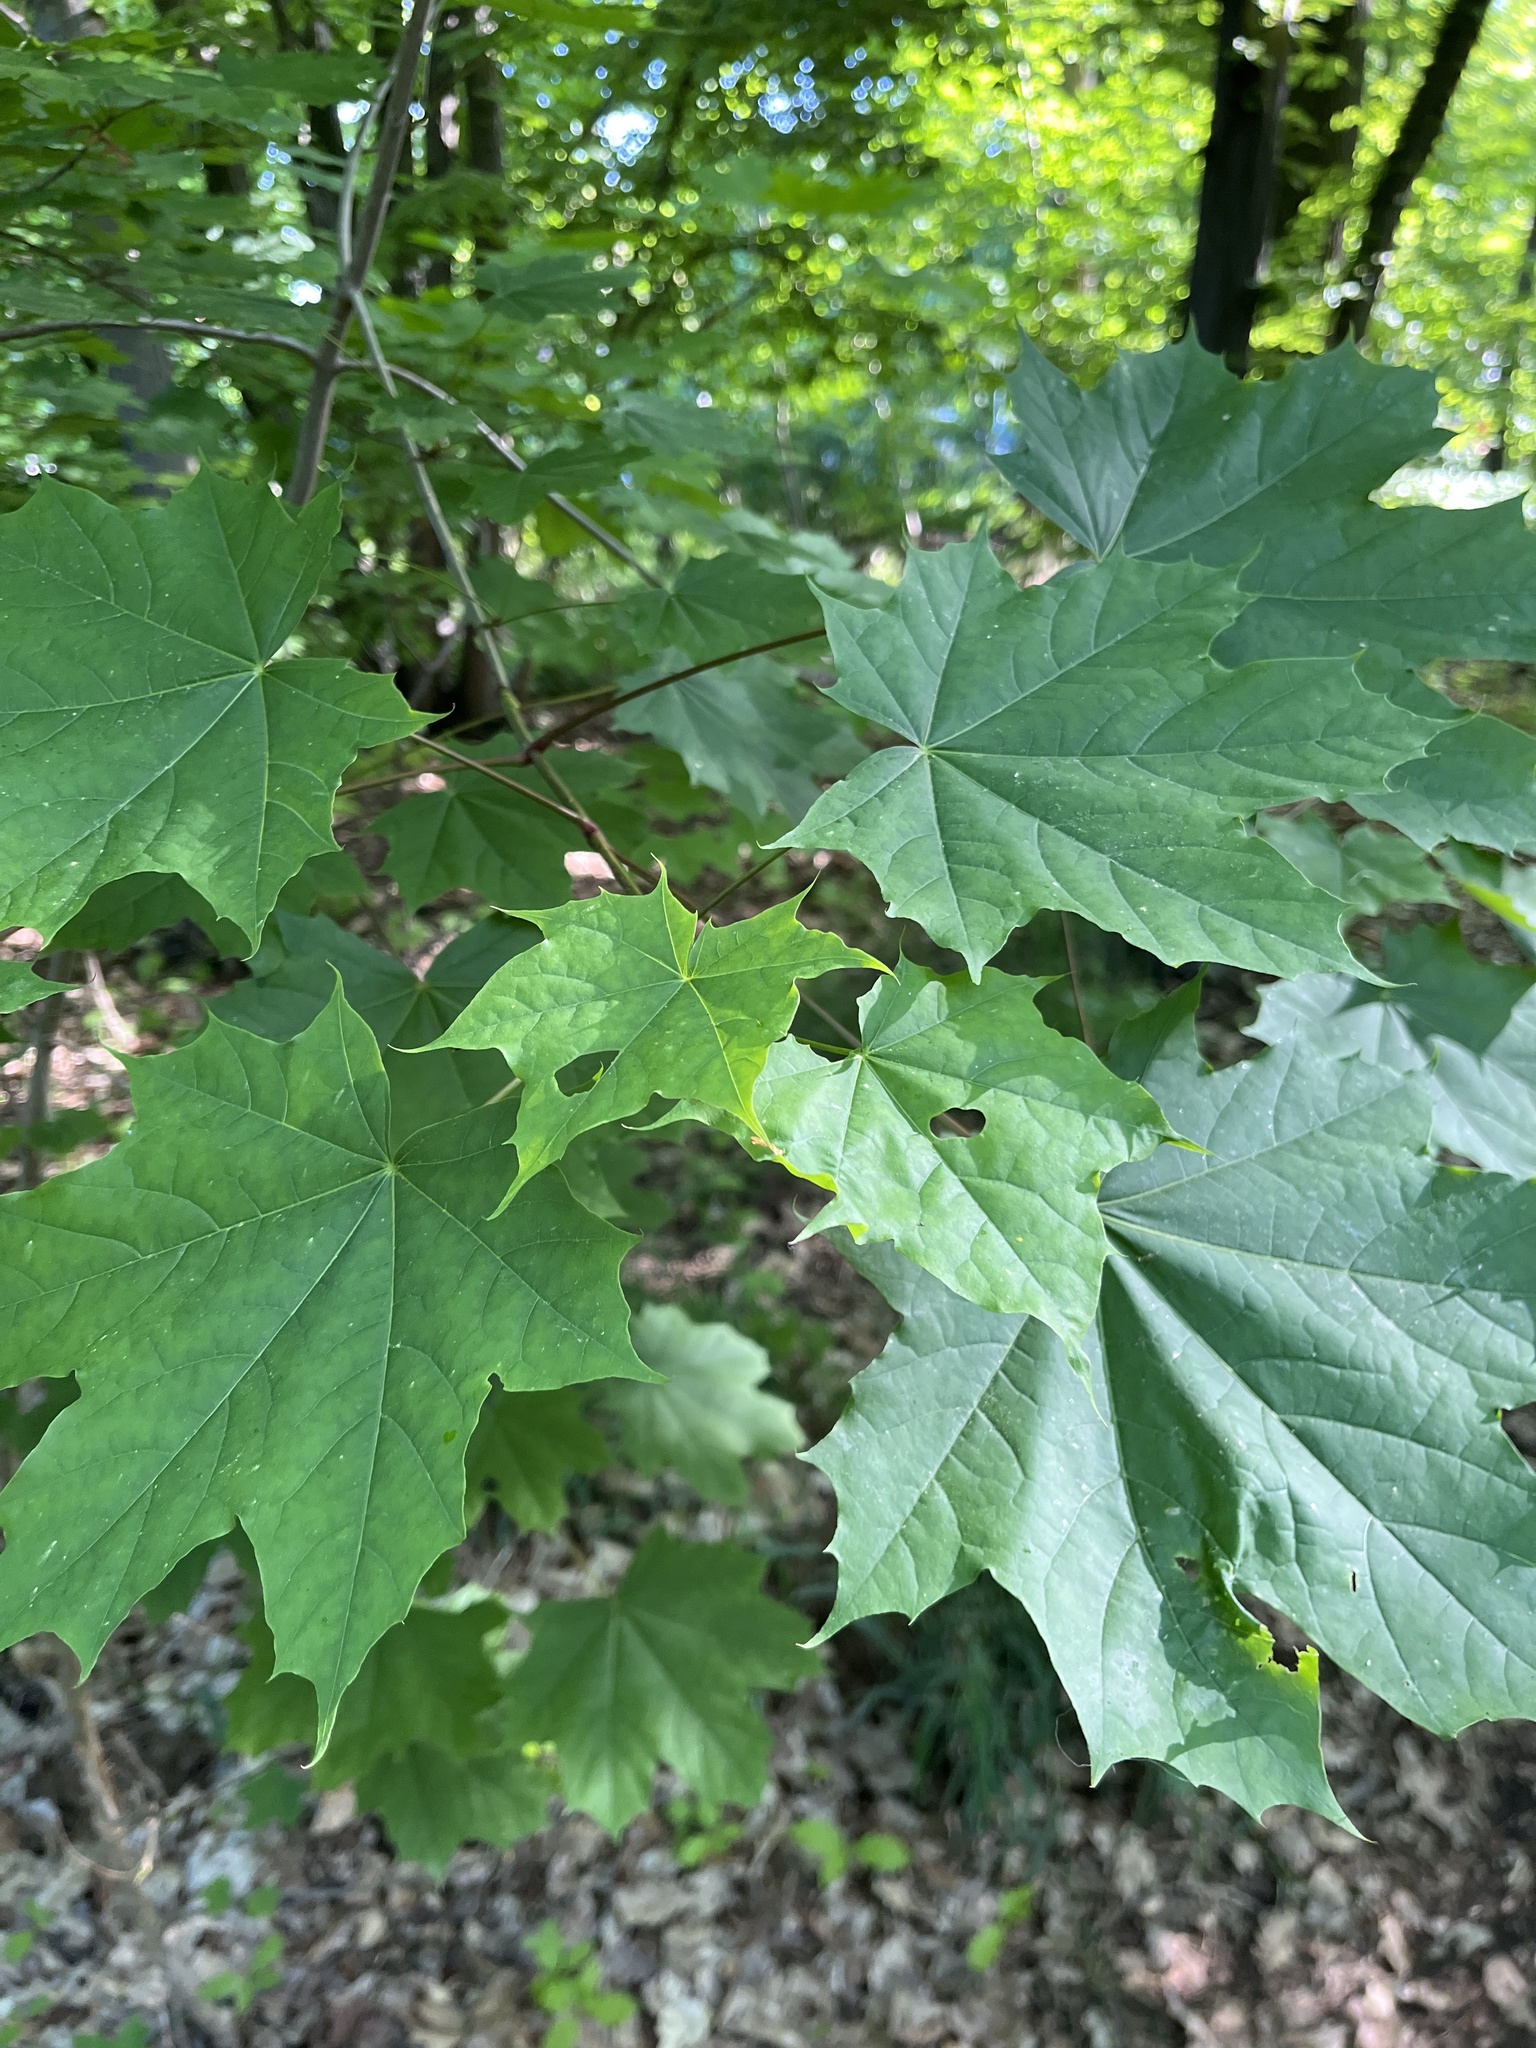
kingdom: Plantae
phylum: Tracheophyta
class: Magnoliopsida
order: Sapindales
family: Sapindaceae
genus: Acer
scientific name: Acer platanoides
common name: Norway maple
